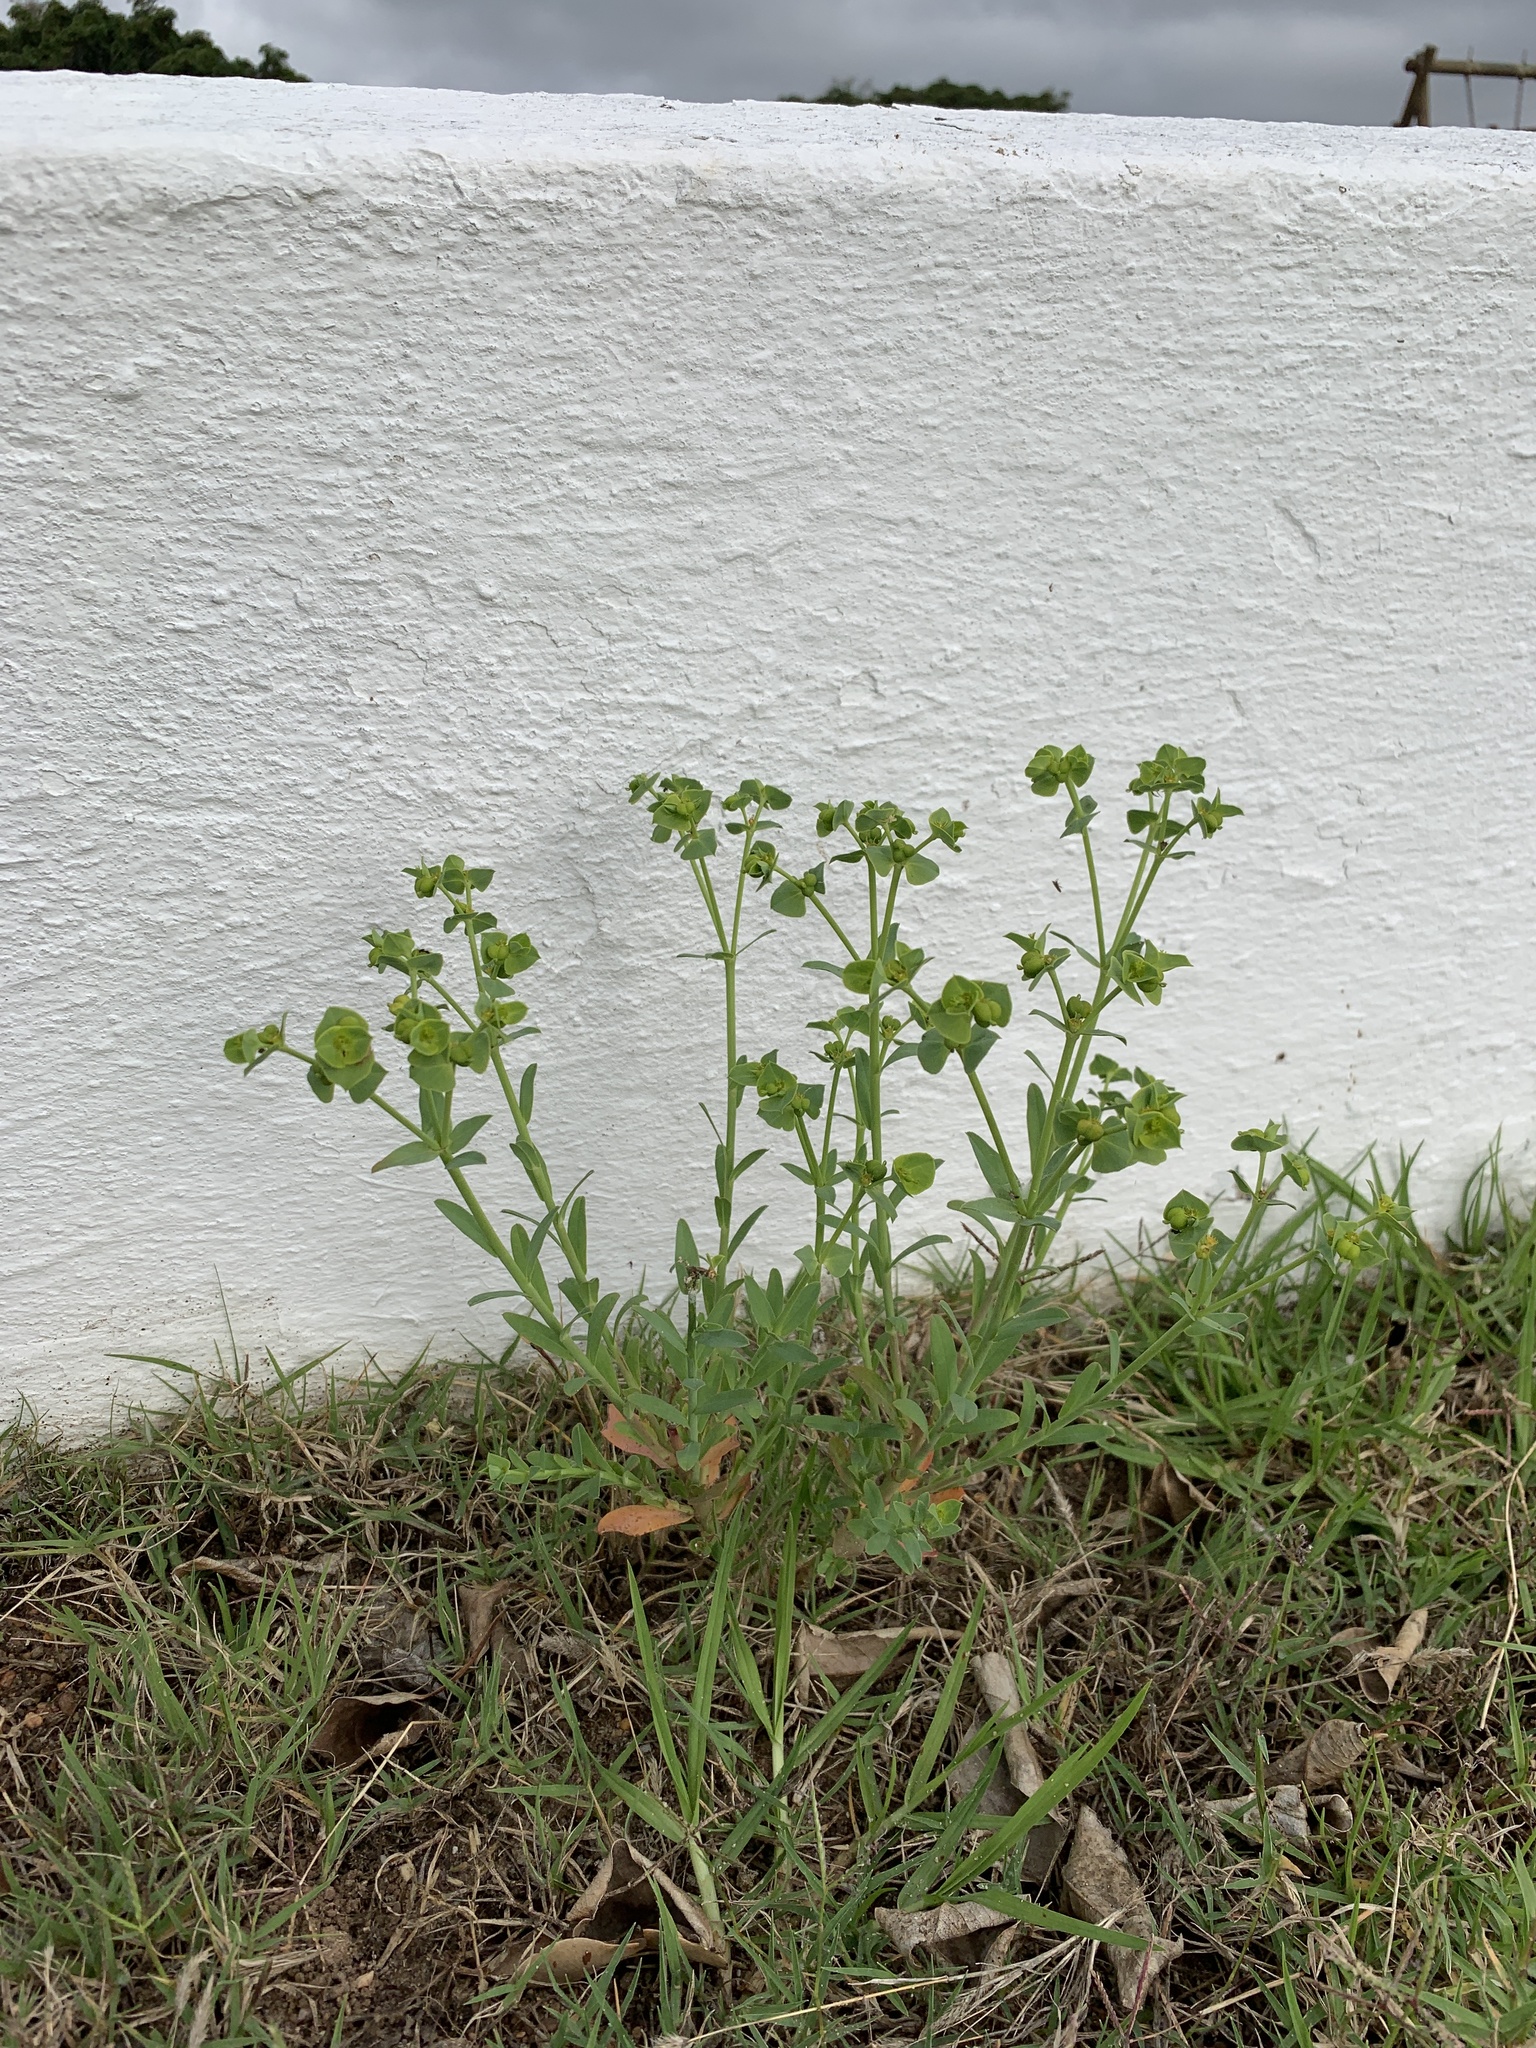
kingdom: Plantae
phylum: Tracheophyta
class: Magnoliopsida
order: Malpighiales
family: Euphorbiaceae
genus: Euphorbia
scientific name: Euphorbia terracina
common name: Geraldton carnation weed
